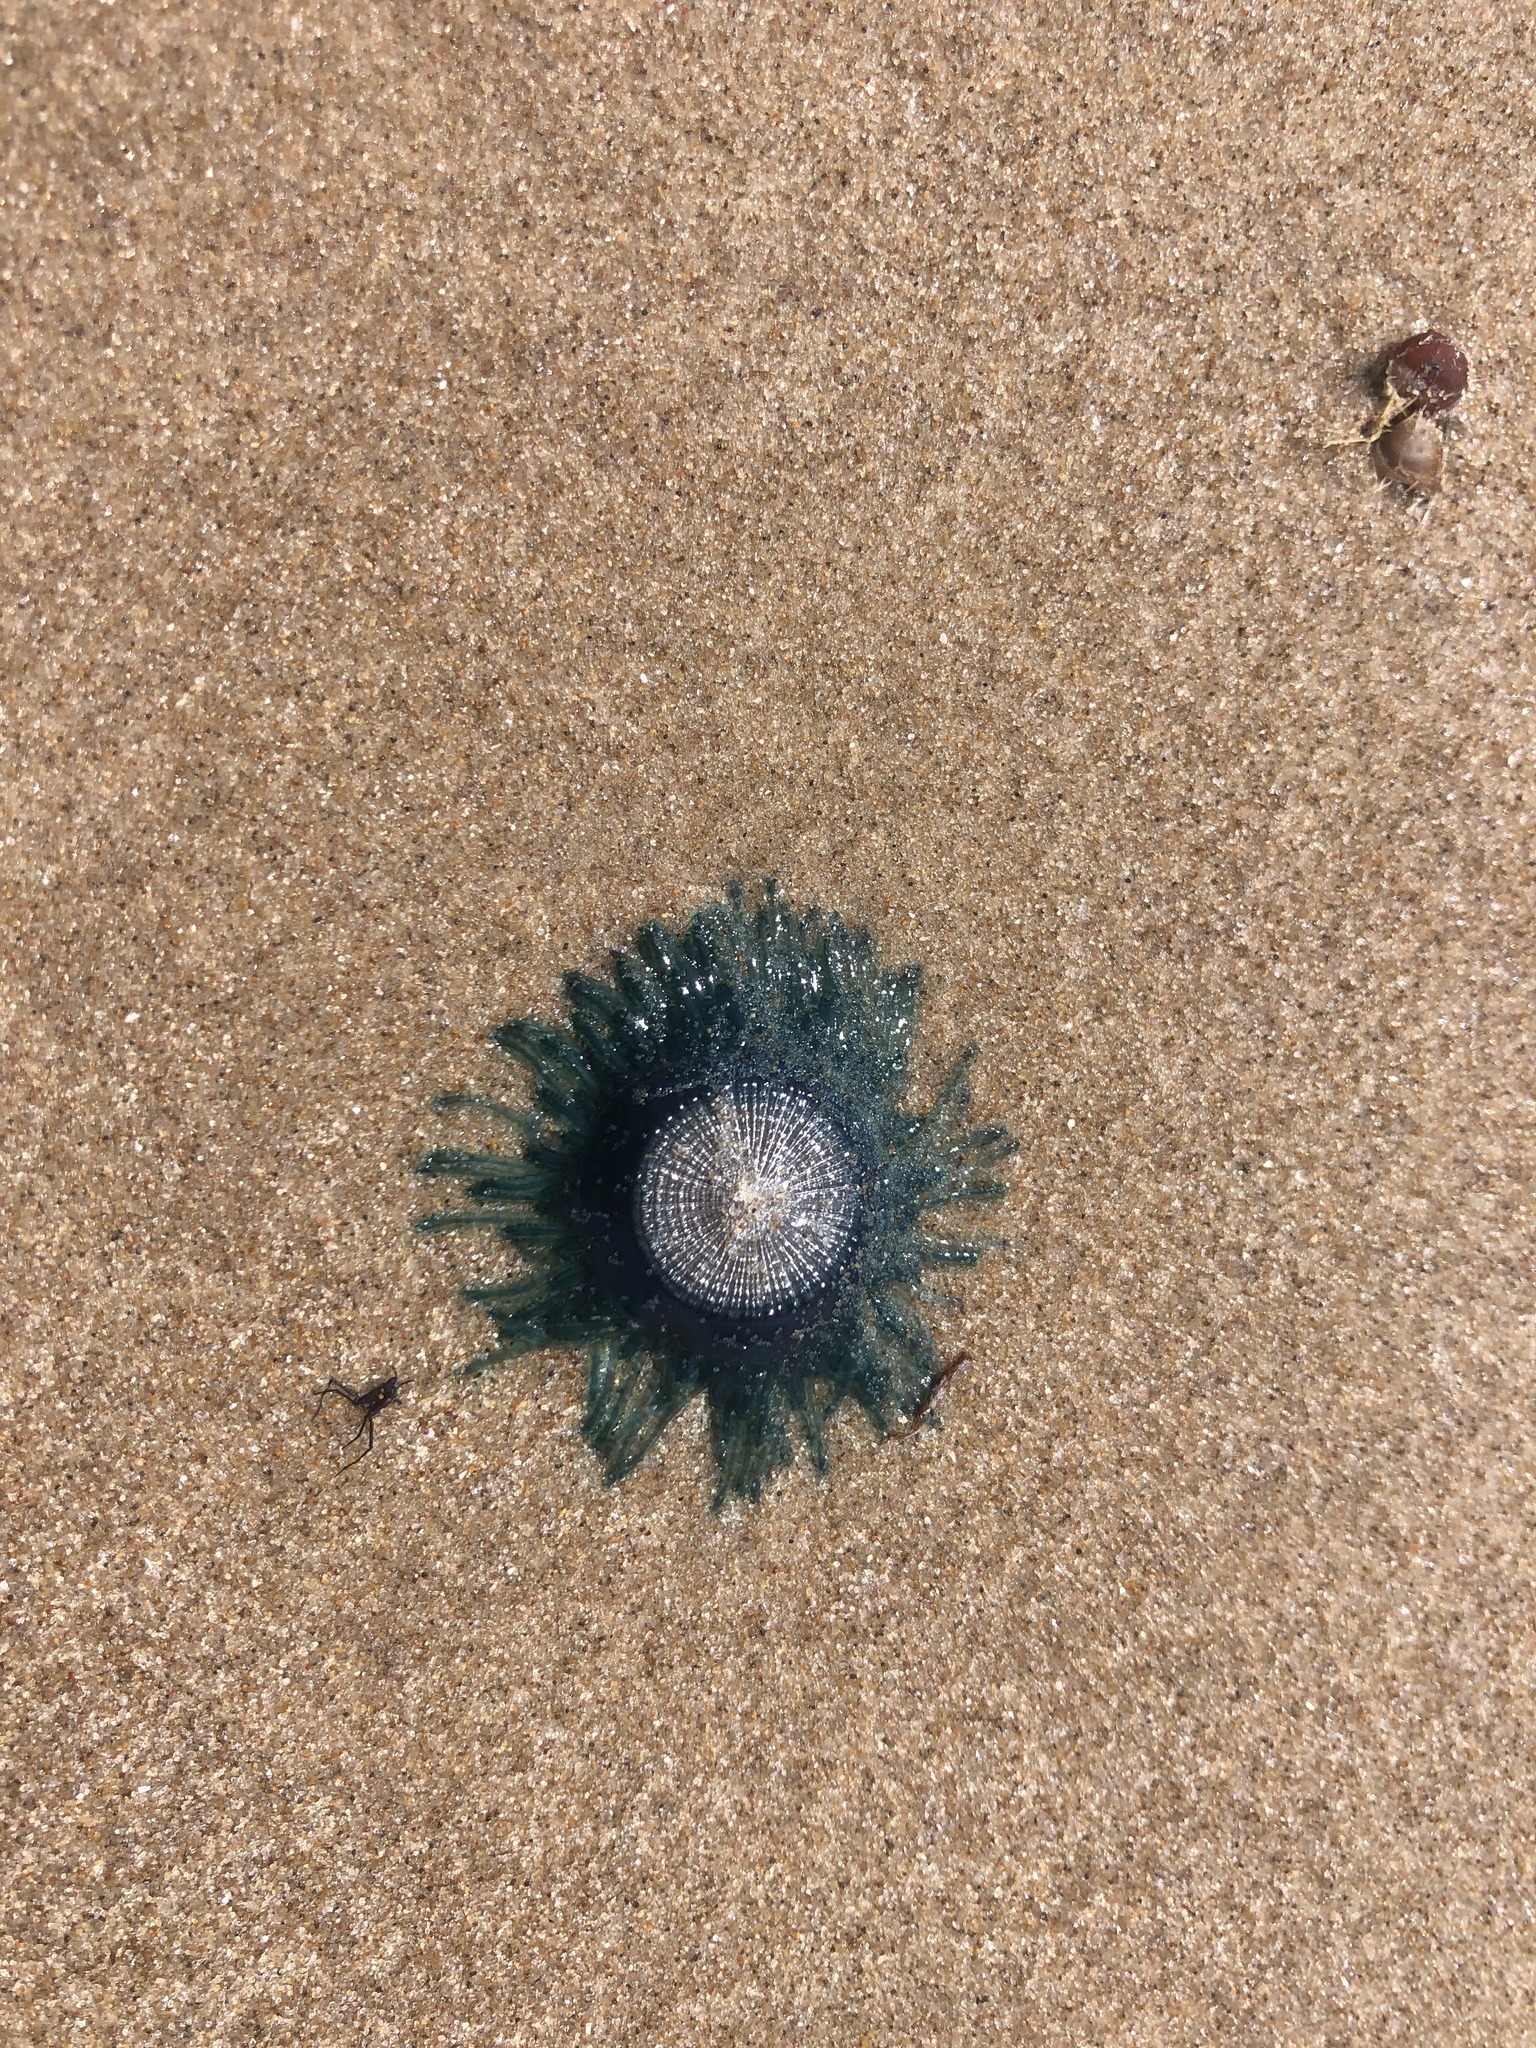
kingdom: Animalia
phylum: Cnidaria
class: Hydrozoa
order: Anthoathecata
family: Porpitidae
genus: Porpita
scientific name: Porpita porpita
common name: Blue button
